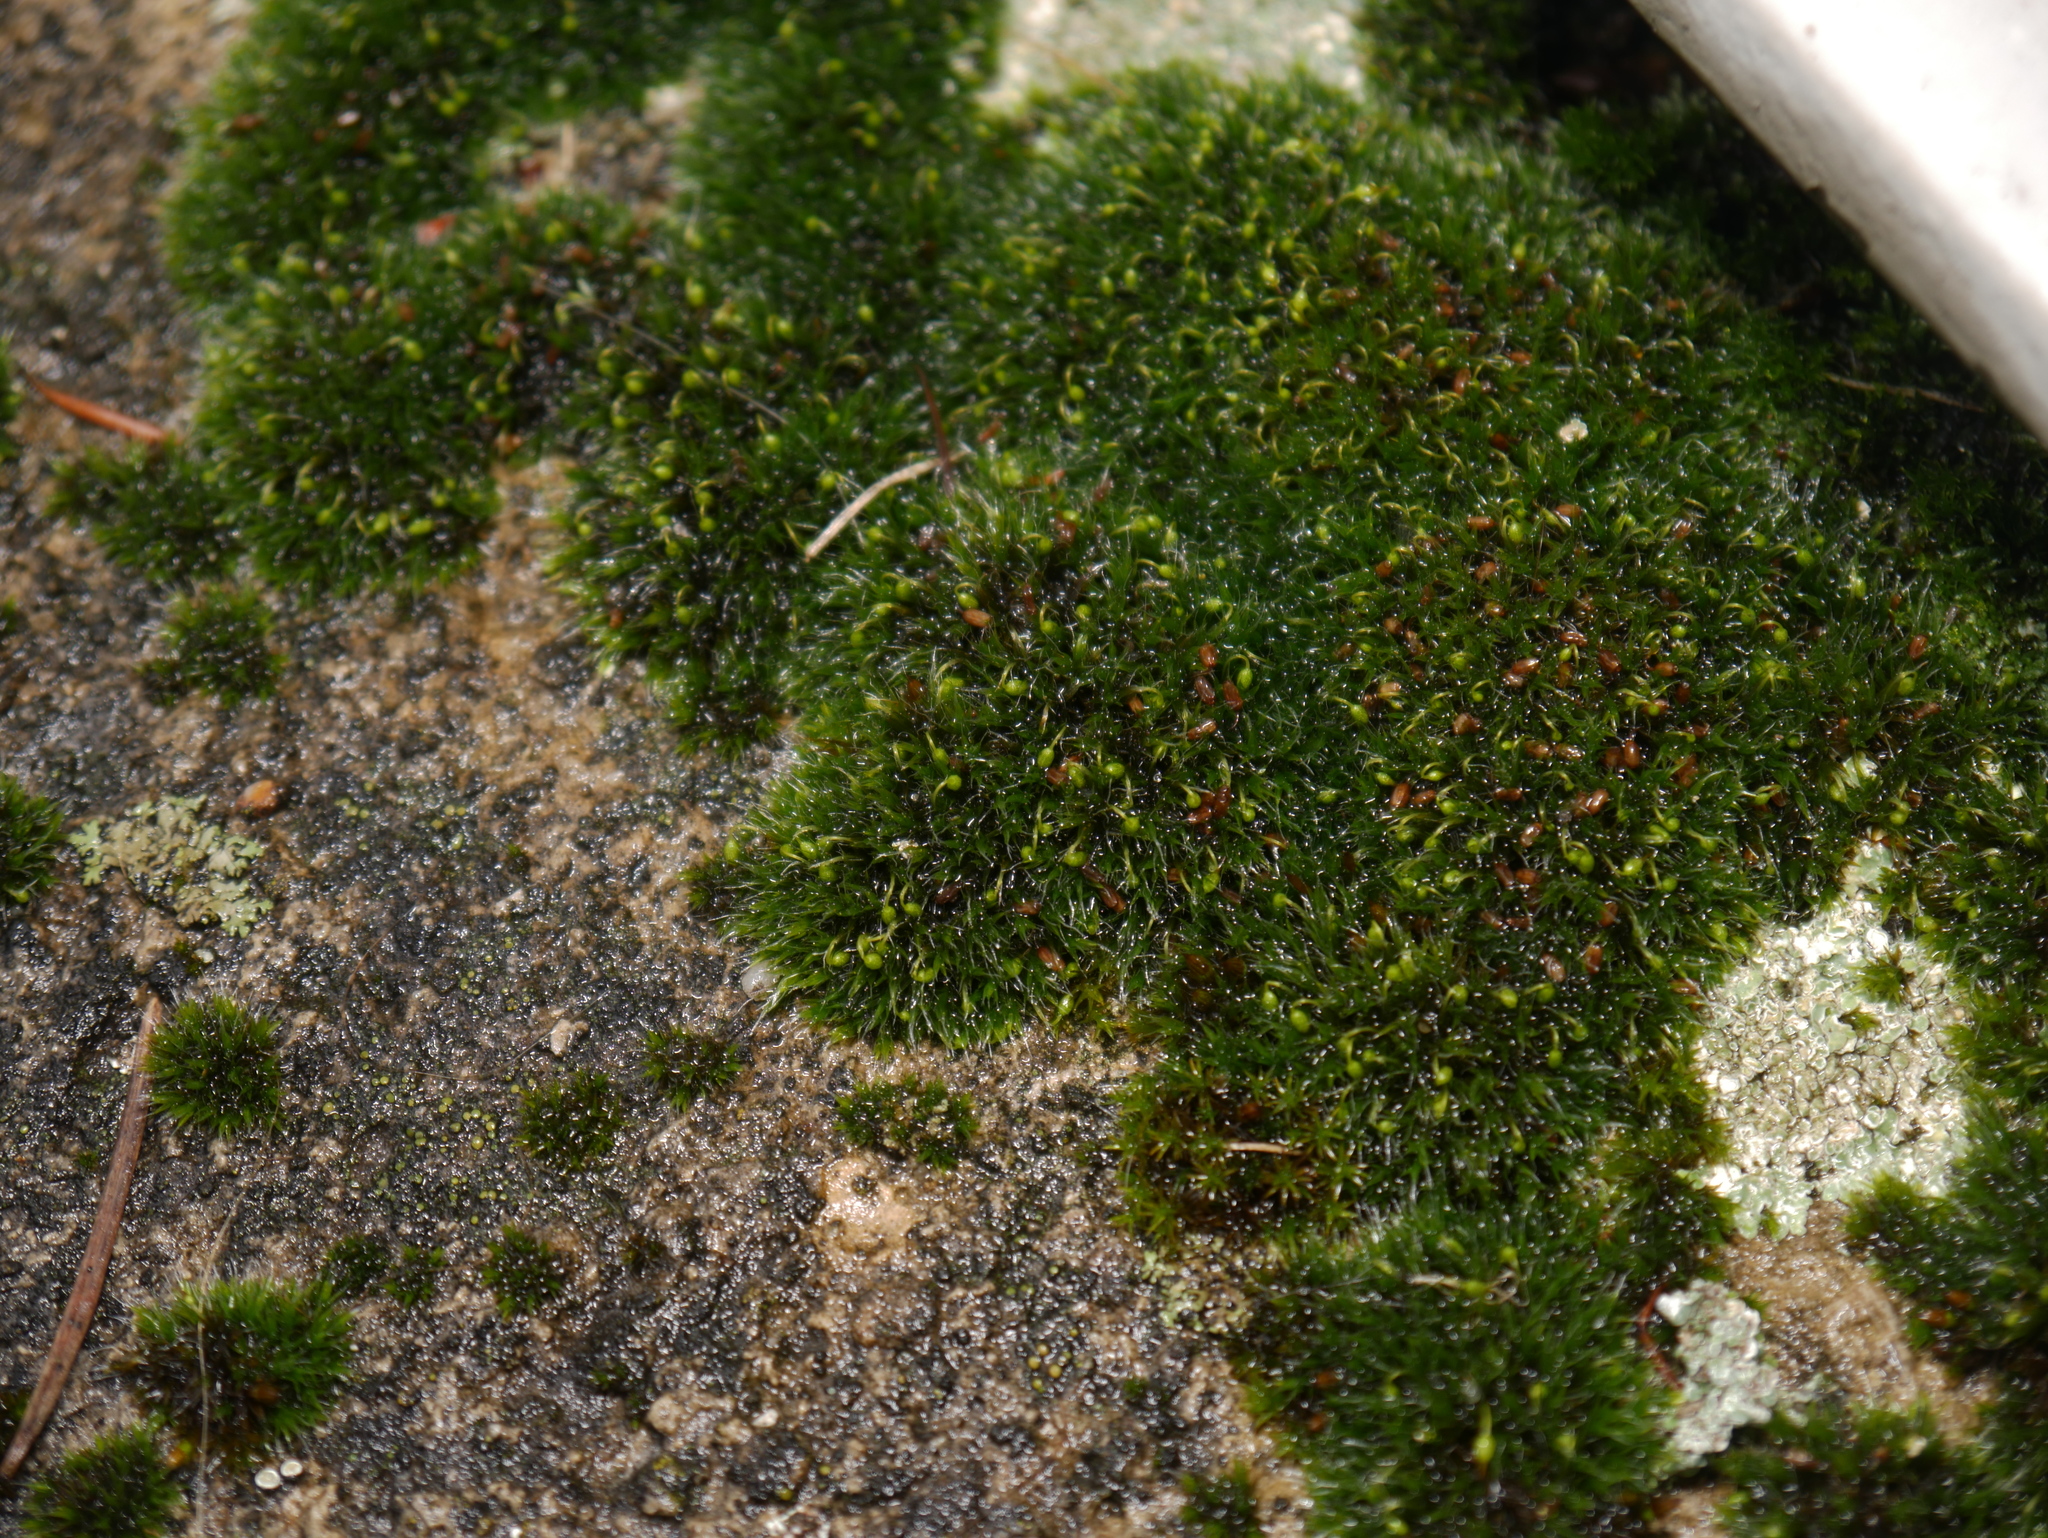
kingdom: Plantae
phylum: Bryophyta
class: Bryopsida
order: Grimmiales
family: Grimmiaceae
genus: Grimmia
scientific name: Grimmia pulvinata
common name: Grey-cushioned grimmia
